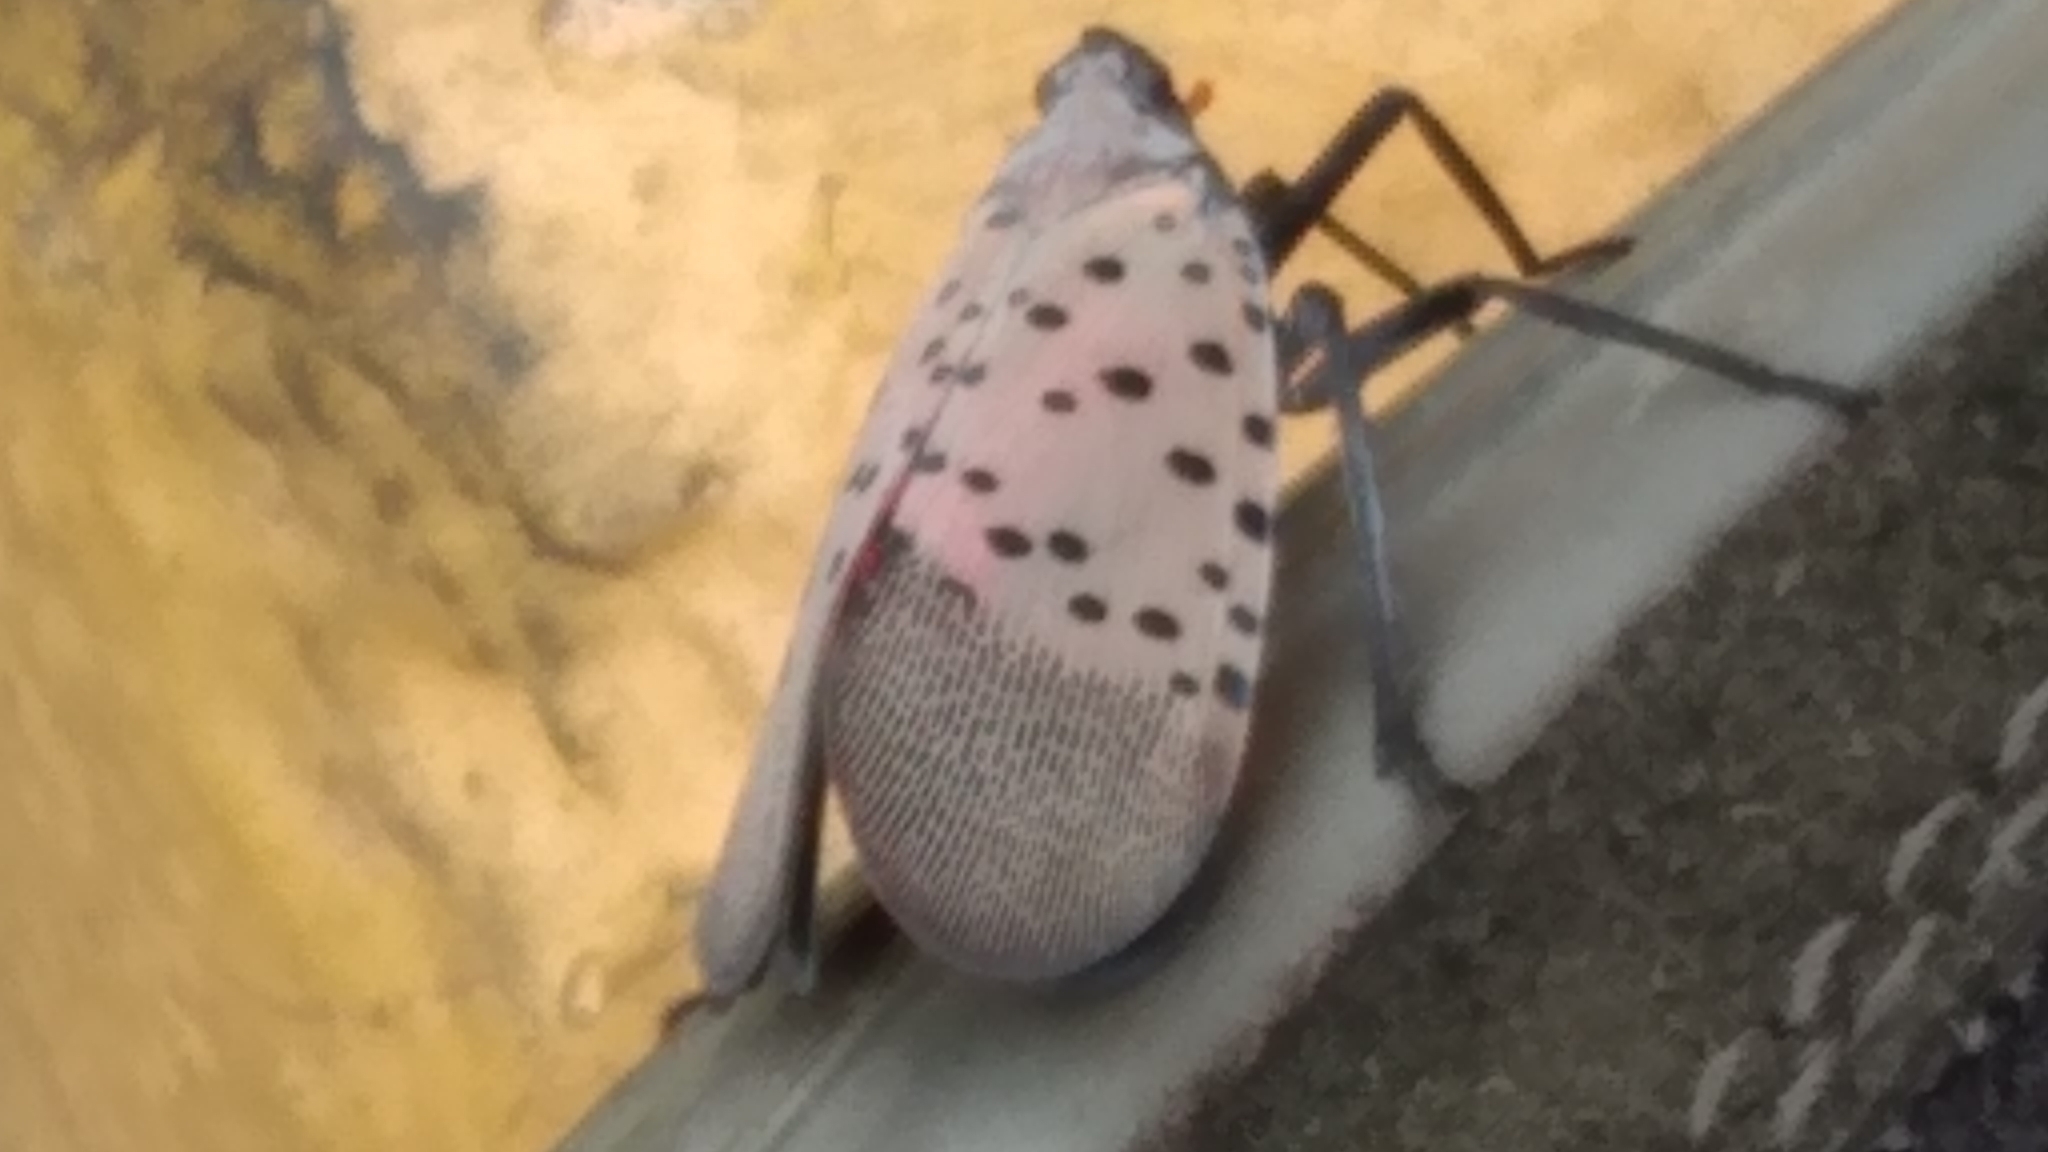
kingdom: Animalia
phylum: Arthropoda
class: Insecta
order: Hemiptera
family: Fulgoridae
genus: Lycorma
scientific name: Lycorma delicatula
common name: Spotted lanternfly
